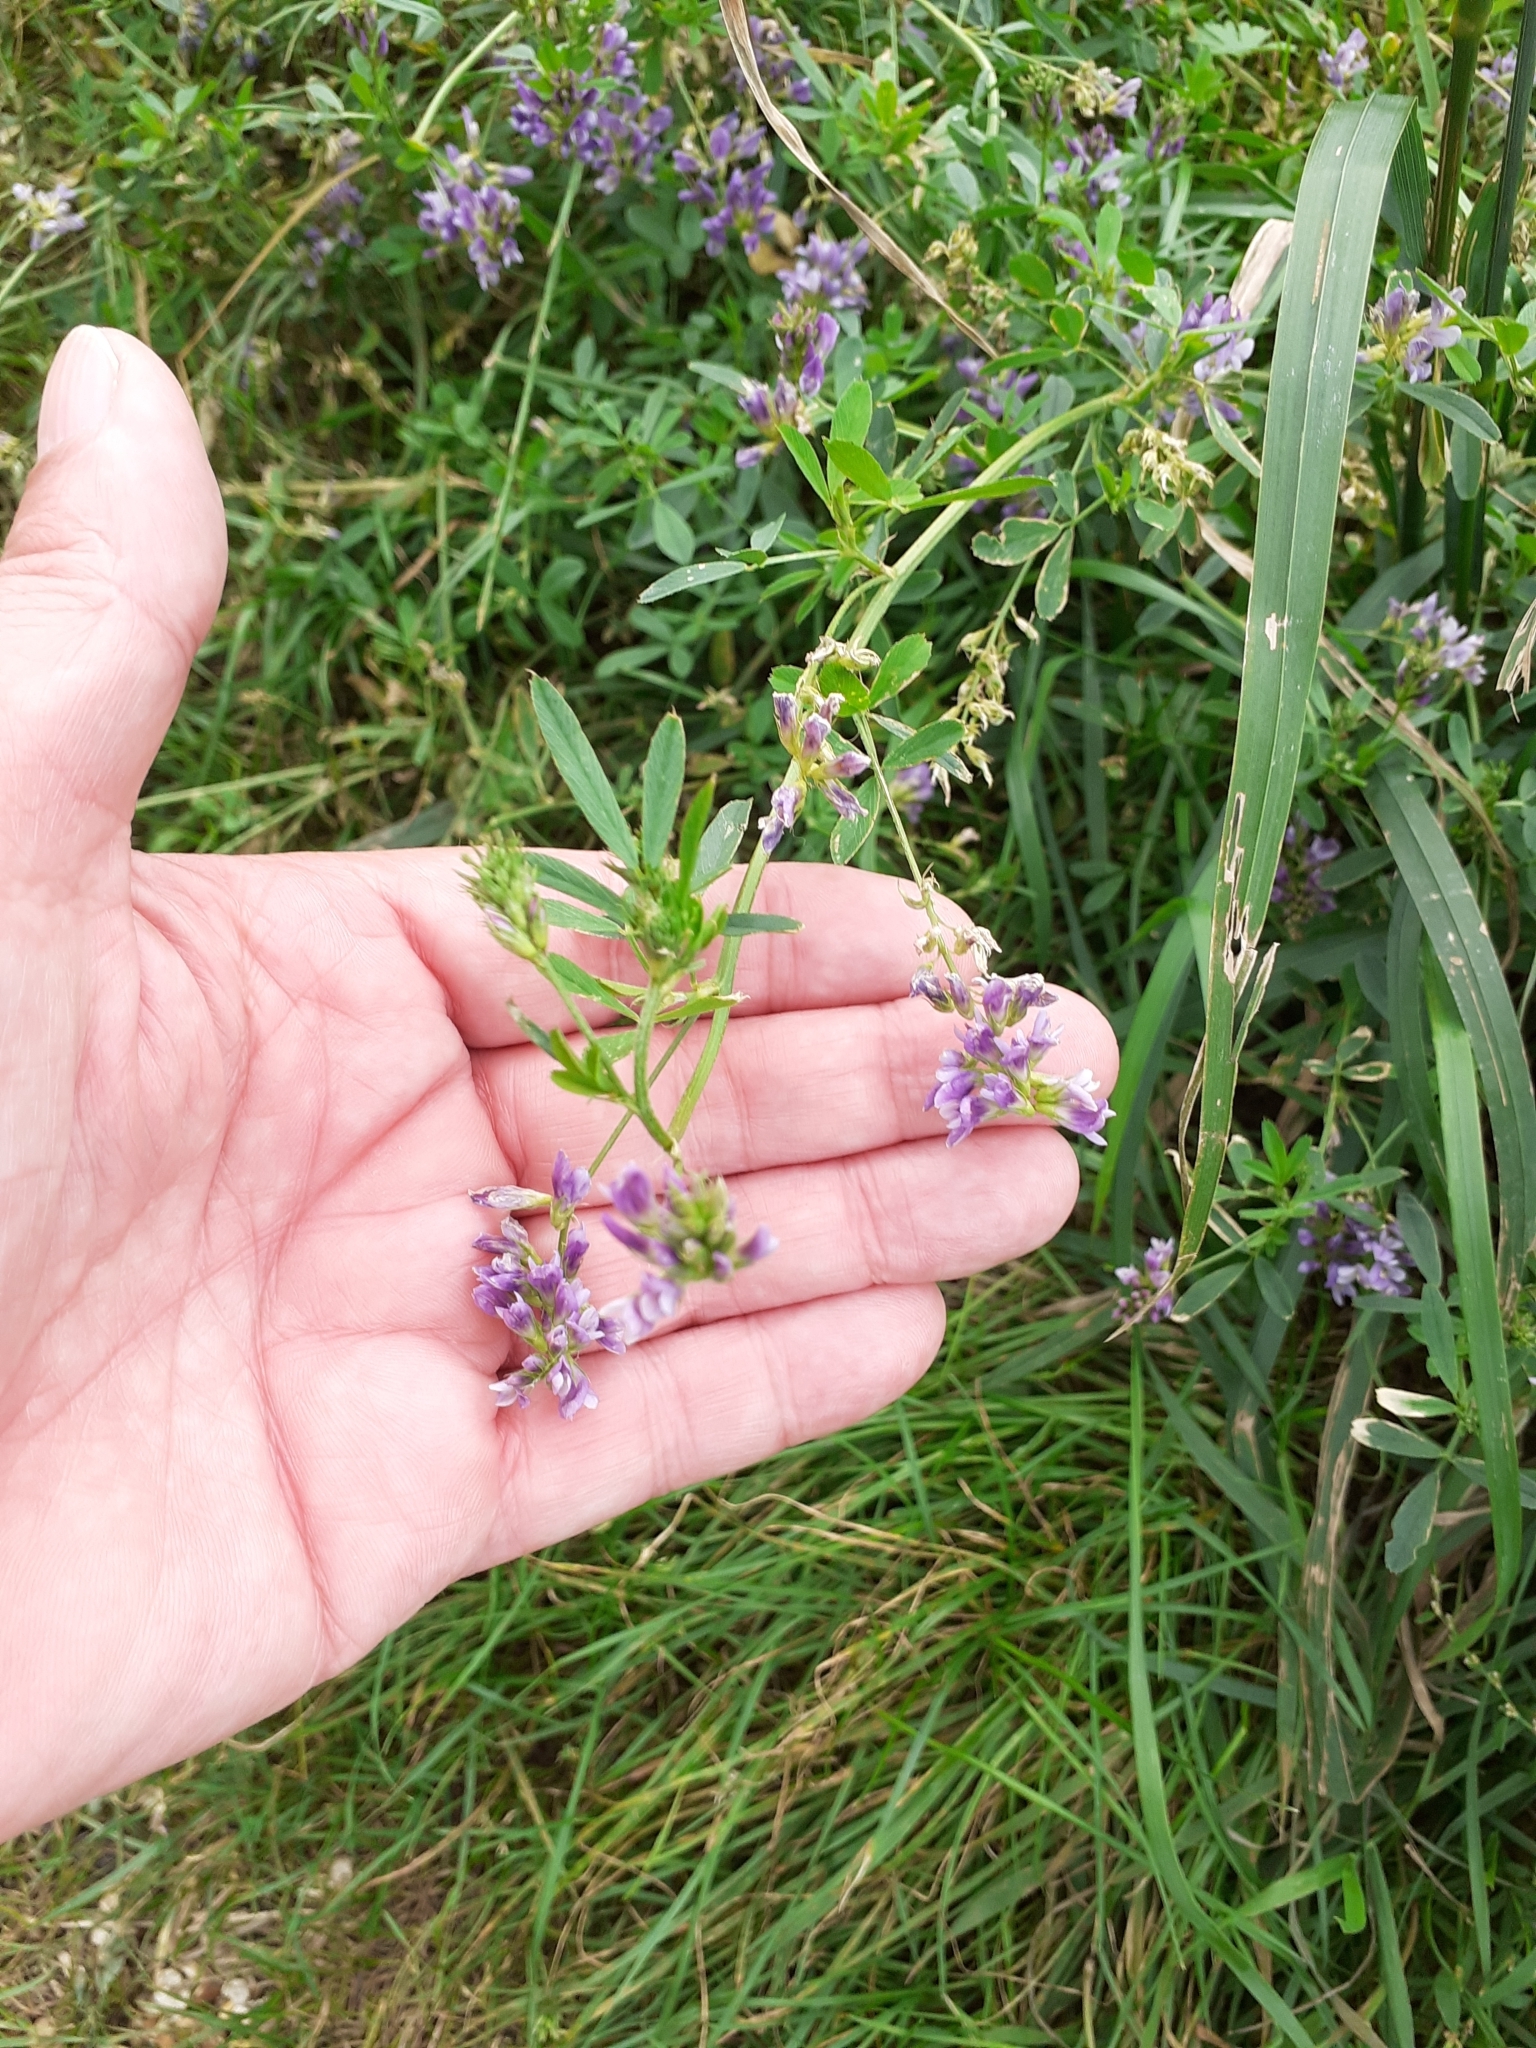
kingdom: Plantae
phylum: Tracheophyta
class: Magnoliopsida
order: Fabales
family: Fabaceae
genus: Medicago
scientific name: Medicago sativa
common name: Alfalfa
